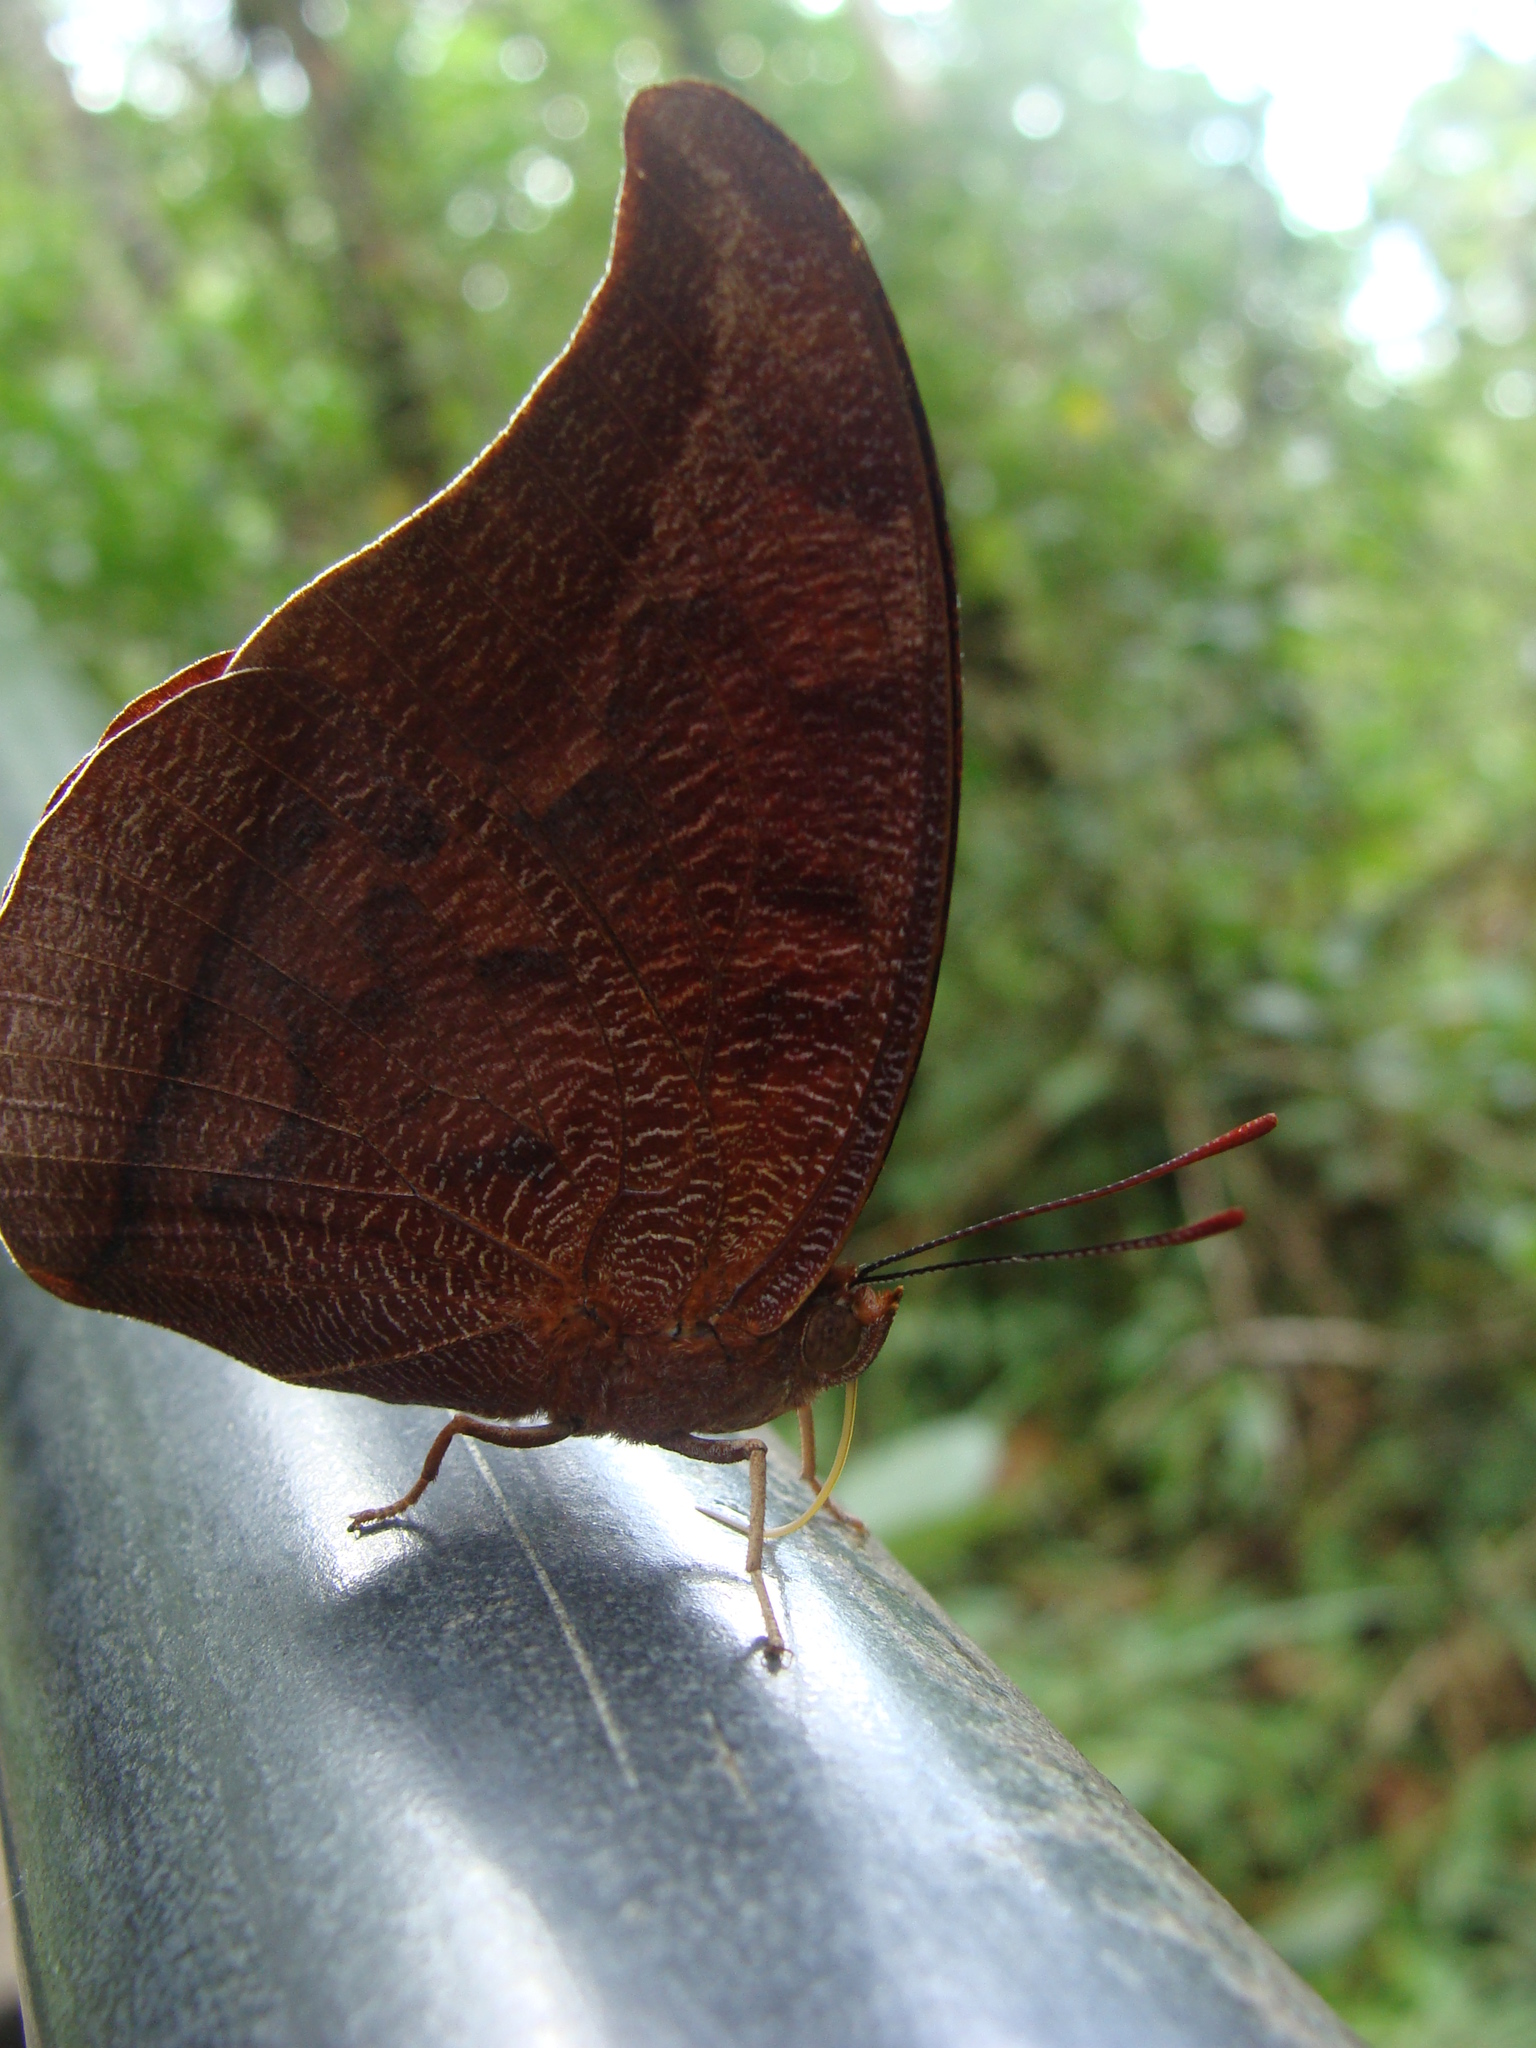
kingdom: Animalia
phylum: Arthropoda
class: Insecta
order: Lepidoptera
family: Nymphalidae
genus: Polygrapha
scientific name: Polygrapha
